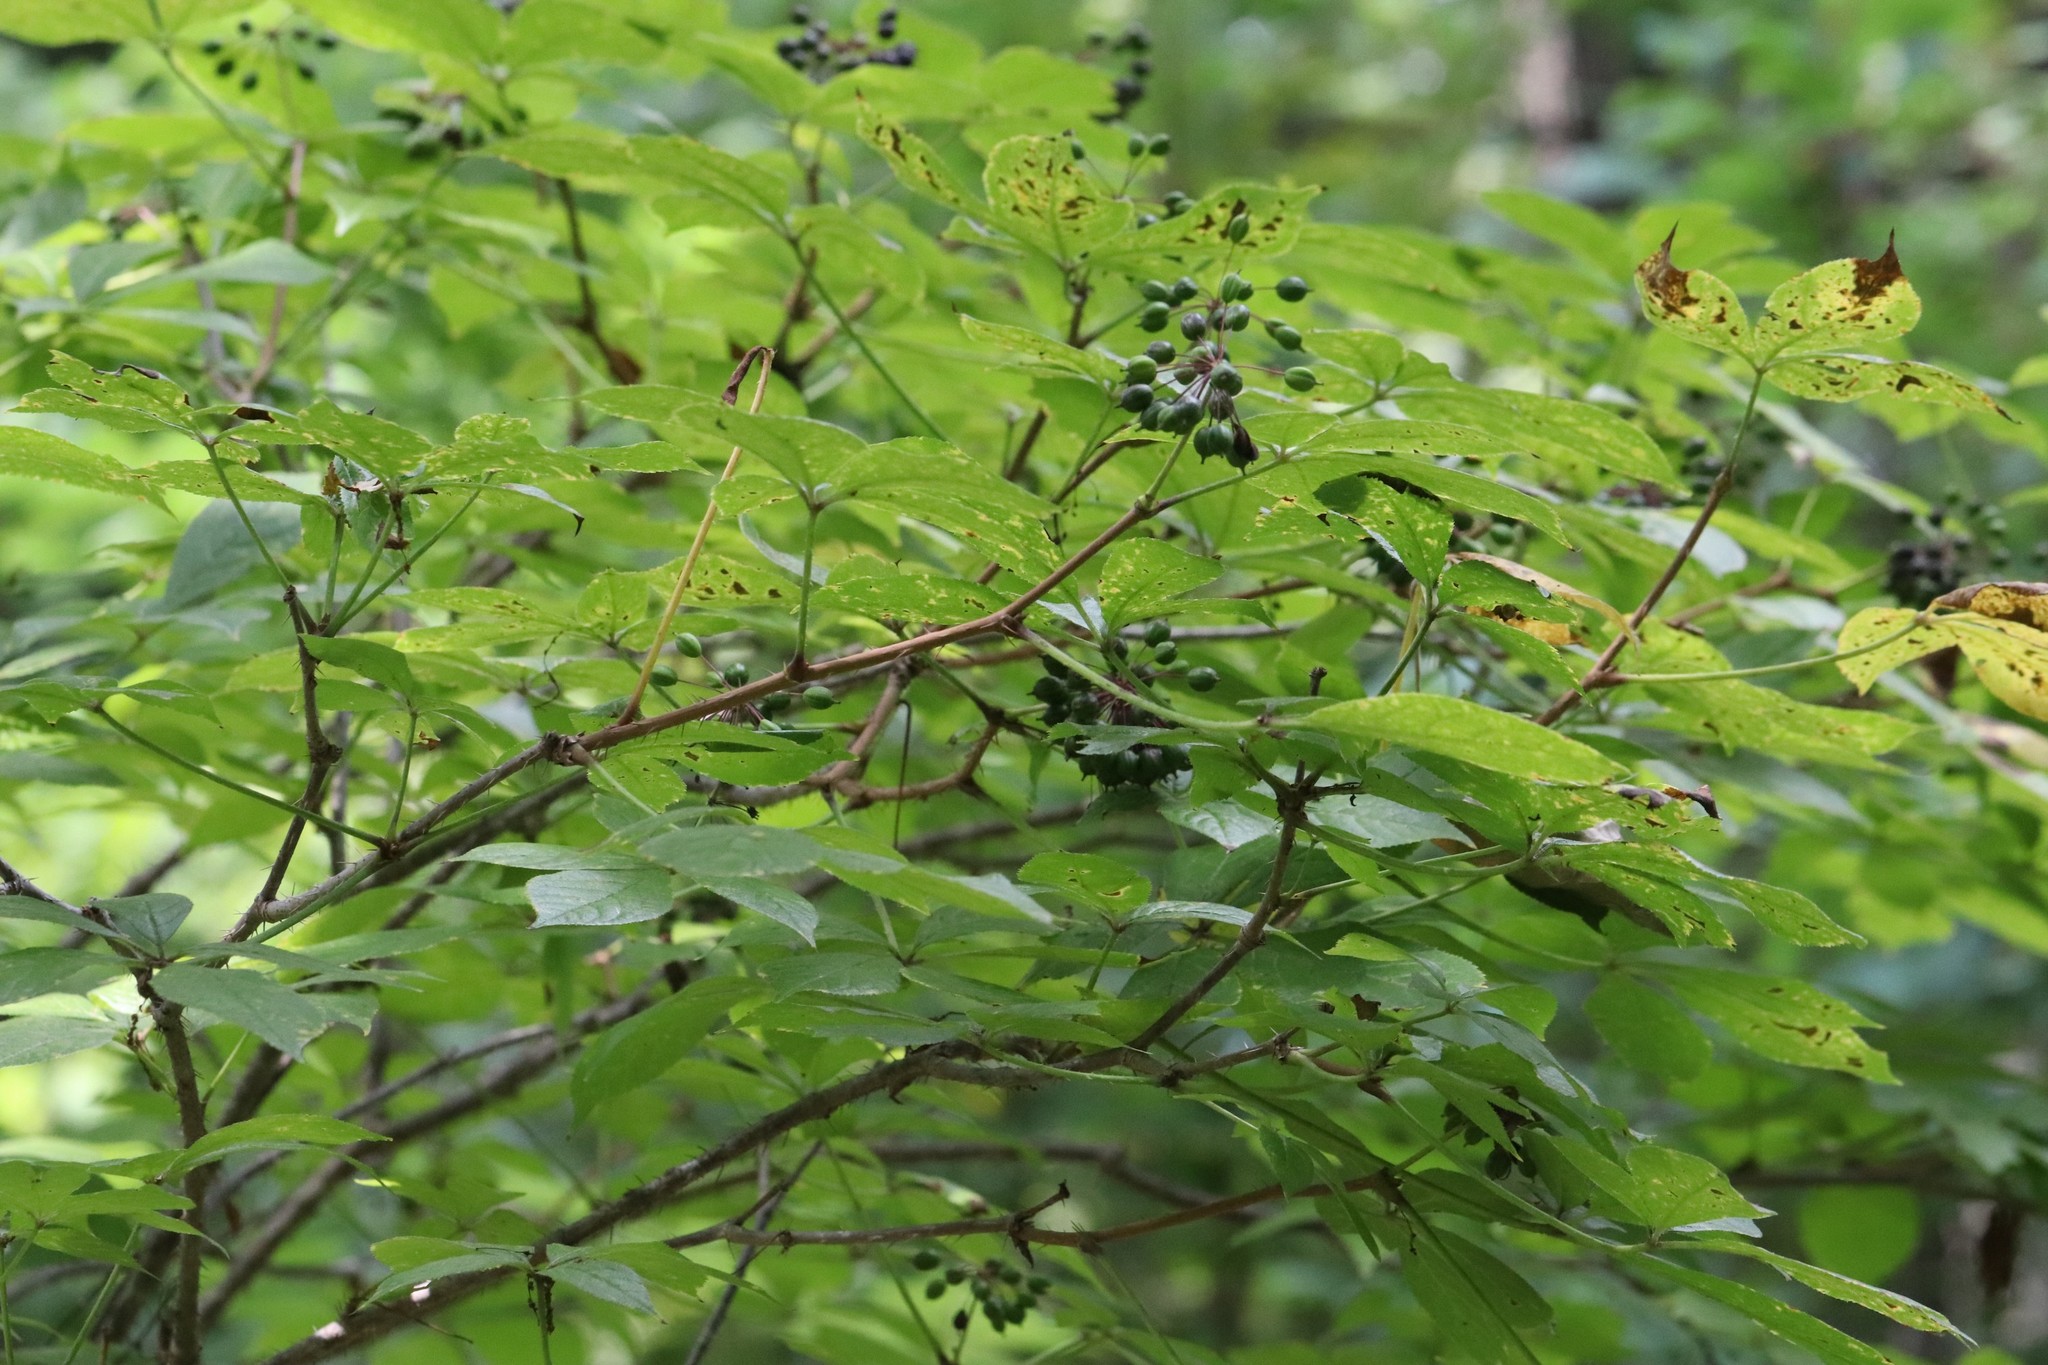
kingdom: Plantae
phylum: Tracheophyta
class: Magnoliopsida
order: Apiales
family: Araliaceae
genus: Eleutherococcus
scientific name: Eleutherococcus senticosus
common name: Siberian-ginseng
